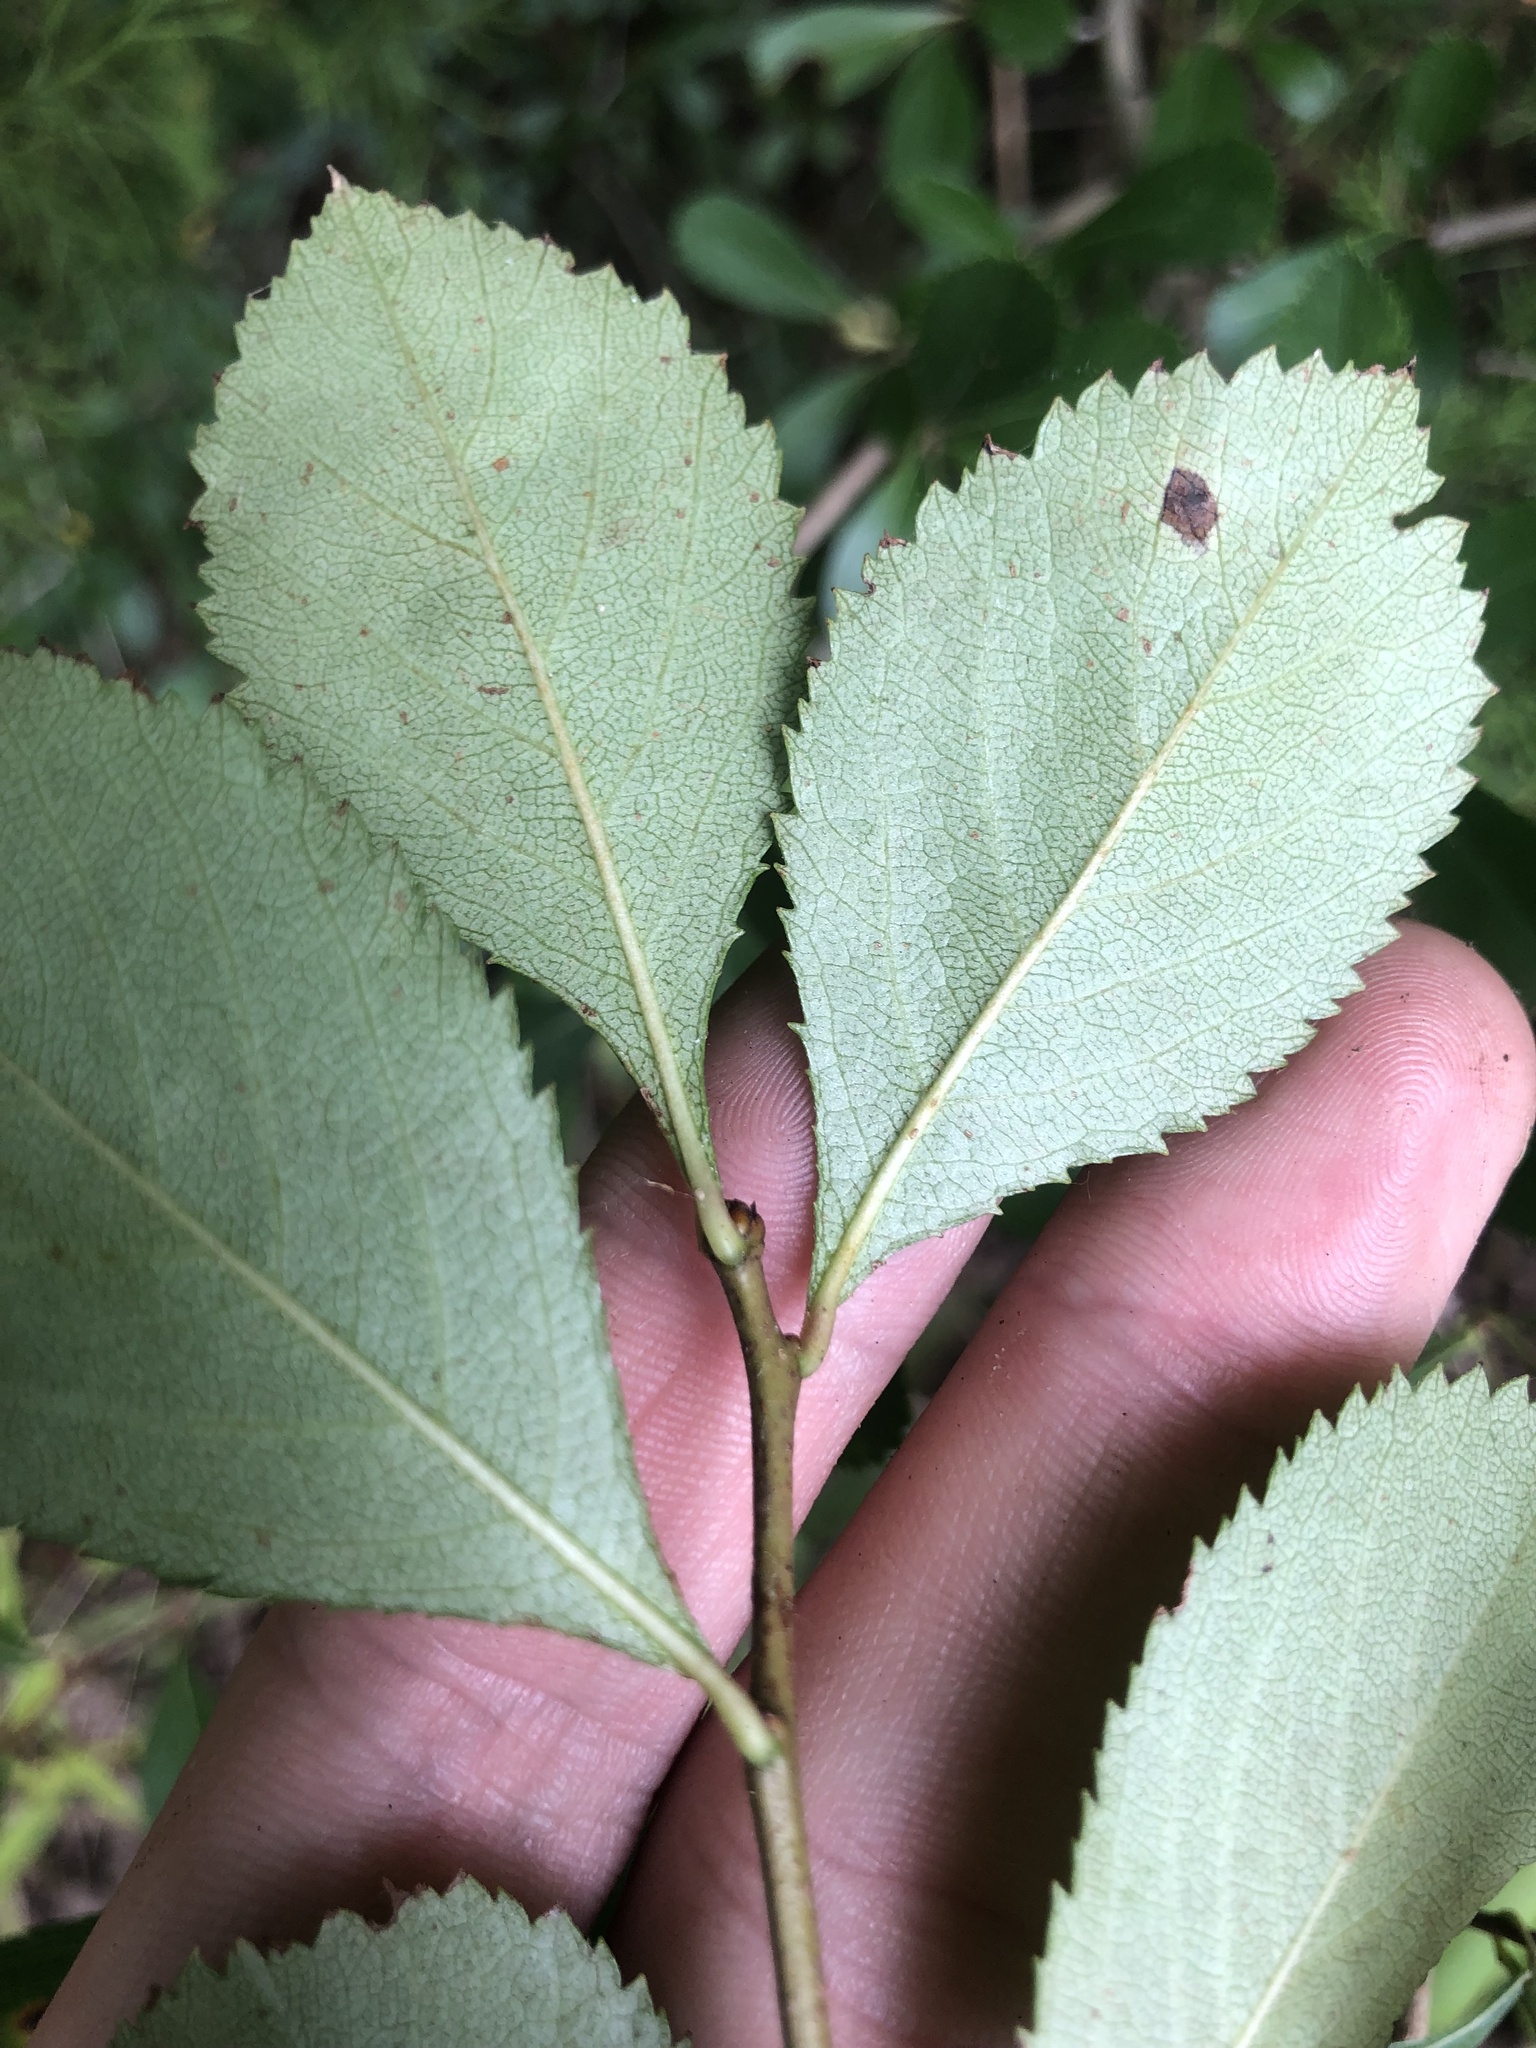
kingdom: Plantae
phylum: Tracheophyta
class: Magnoliopsida
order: Rosales
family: Rosaceae
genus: Crataegus
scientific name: Crataegus berberifolia
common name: Barberry hawthorn
